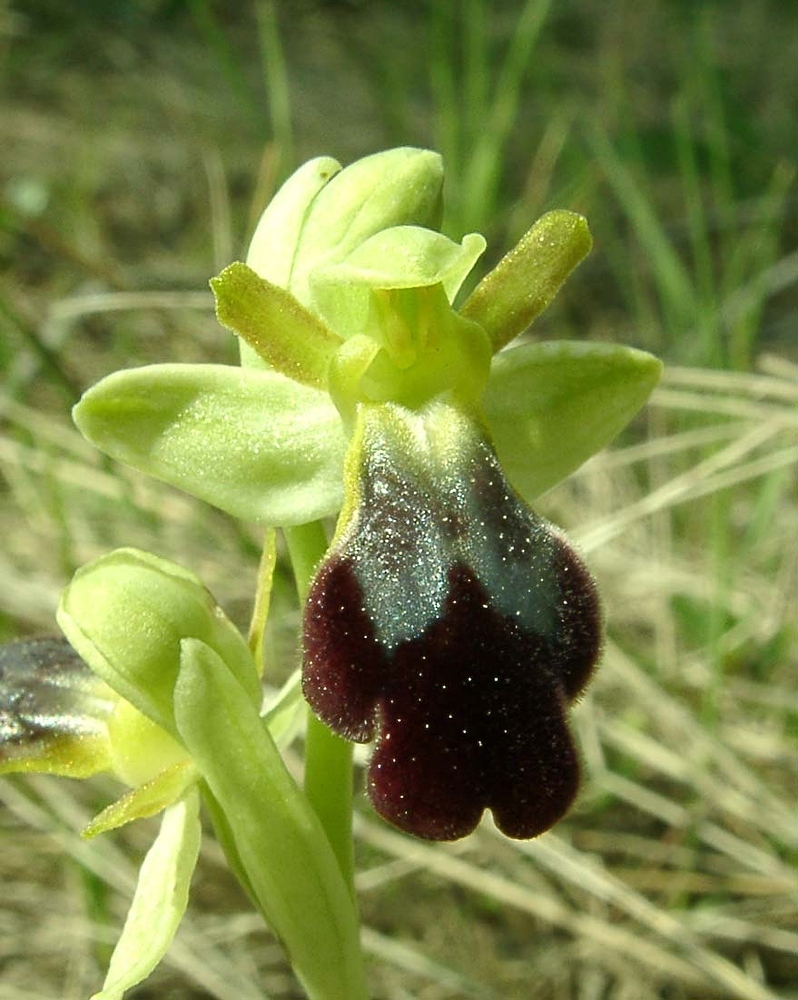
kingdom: Plantae
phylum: Tracheophyta
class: Liliopsida
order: Asparagales
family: Orchidaceae
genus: Ophrys
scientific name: Ophrys fusca
